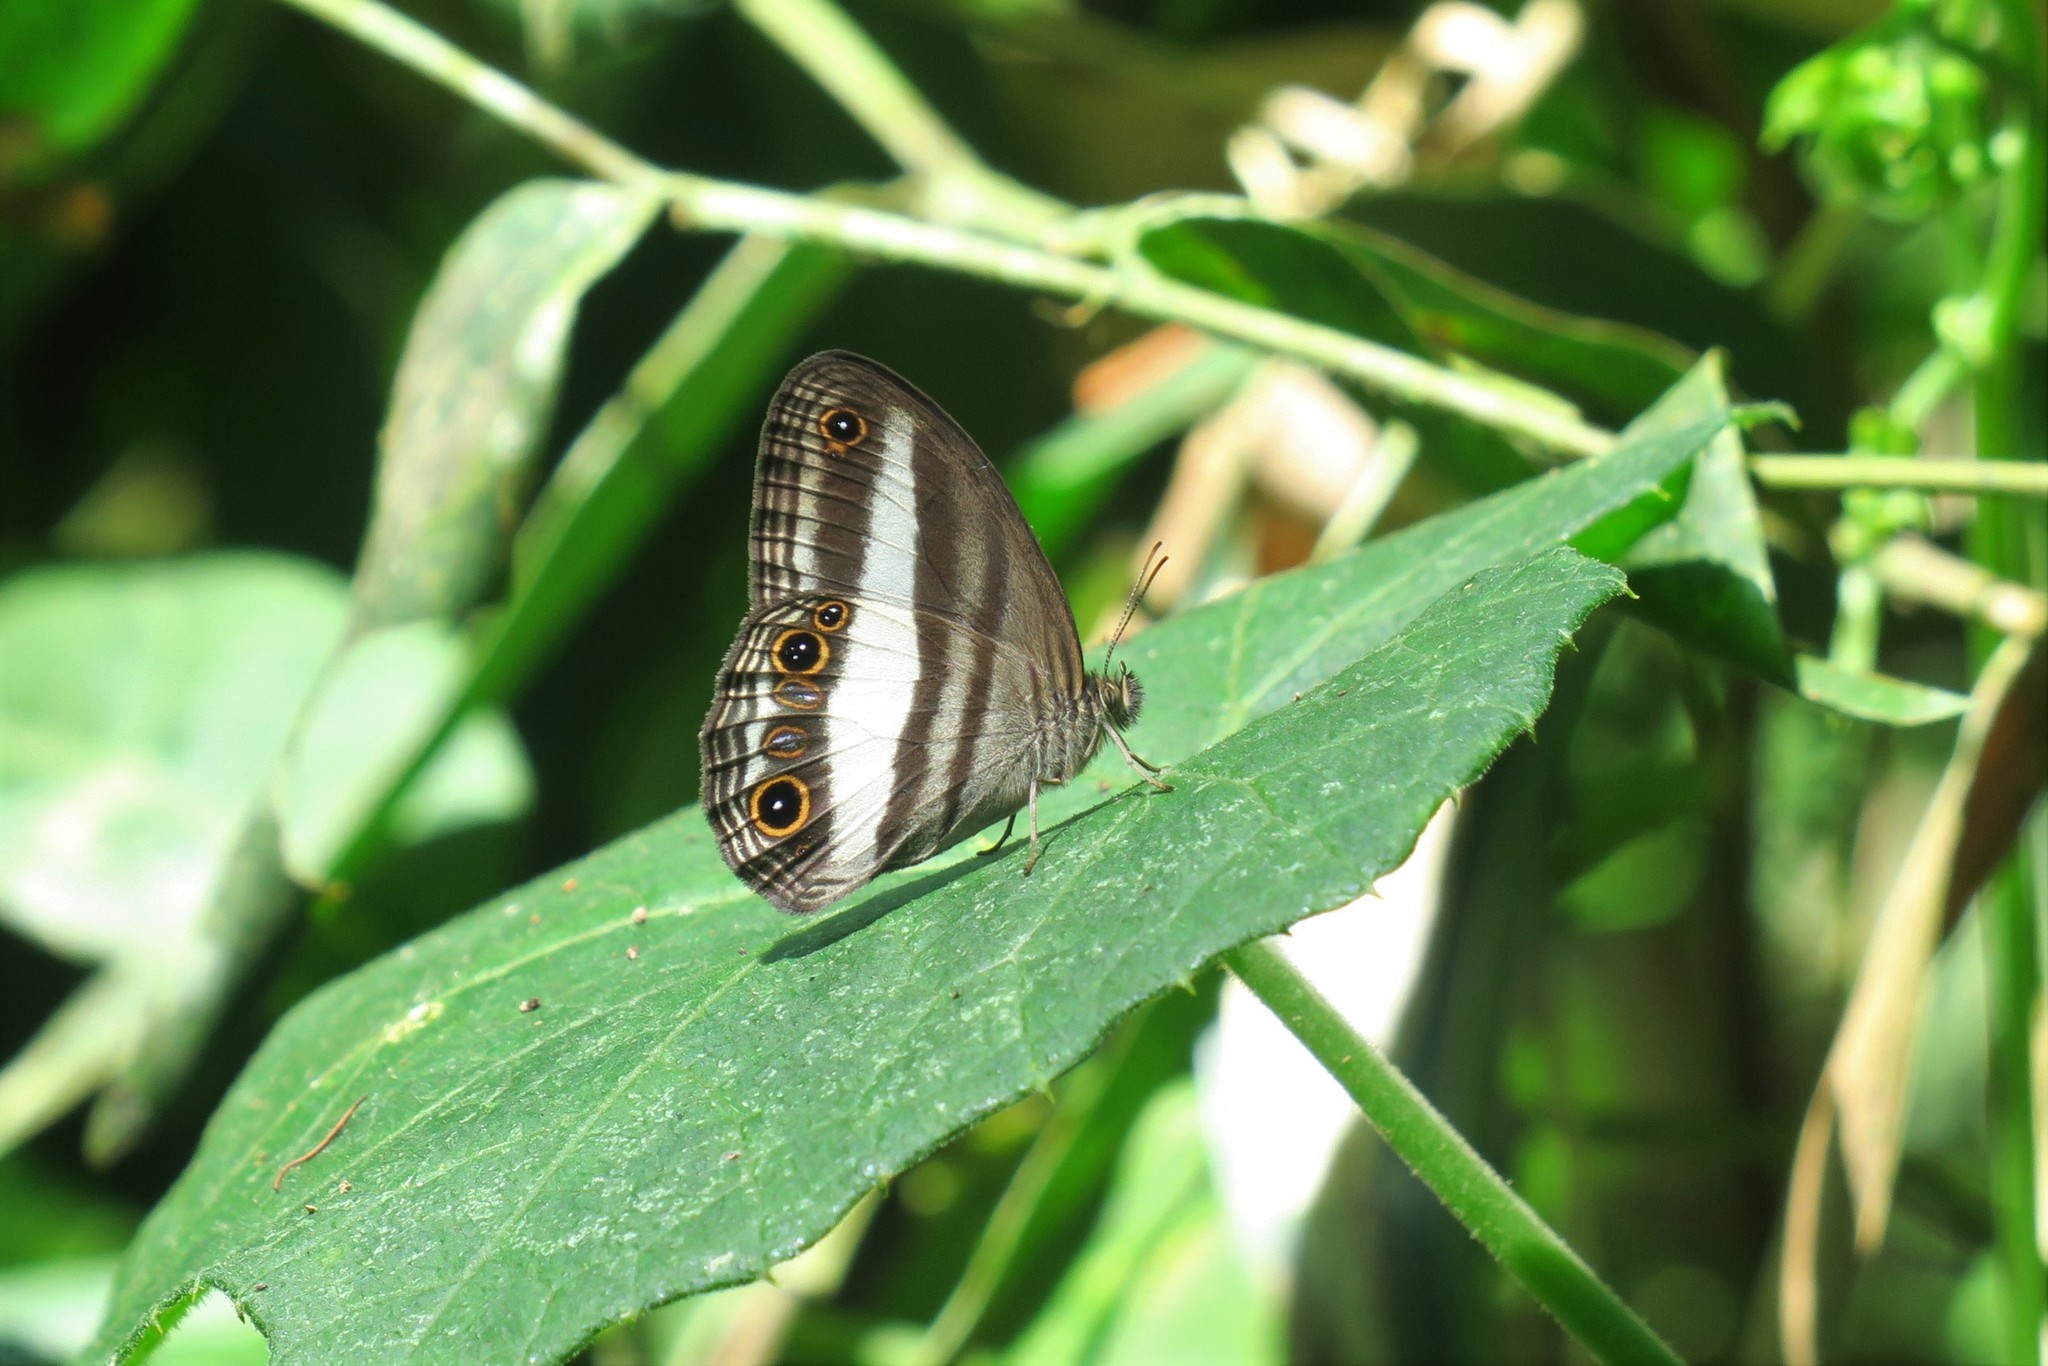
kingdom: Animalia
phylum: Arthropoda
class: Insecta
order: Lepidoptera
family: Nymphalidae
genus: Euptychoides
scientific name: Euptychoides albofasciata
